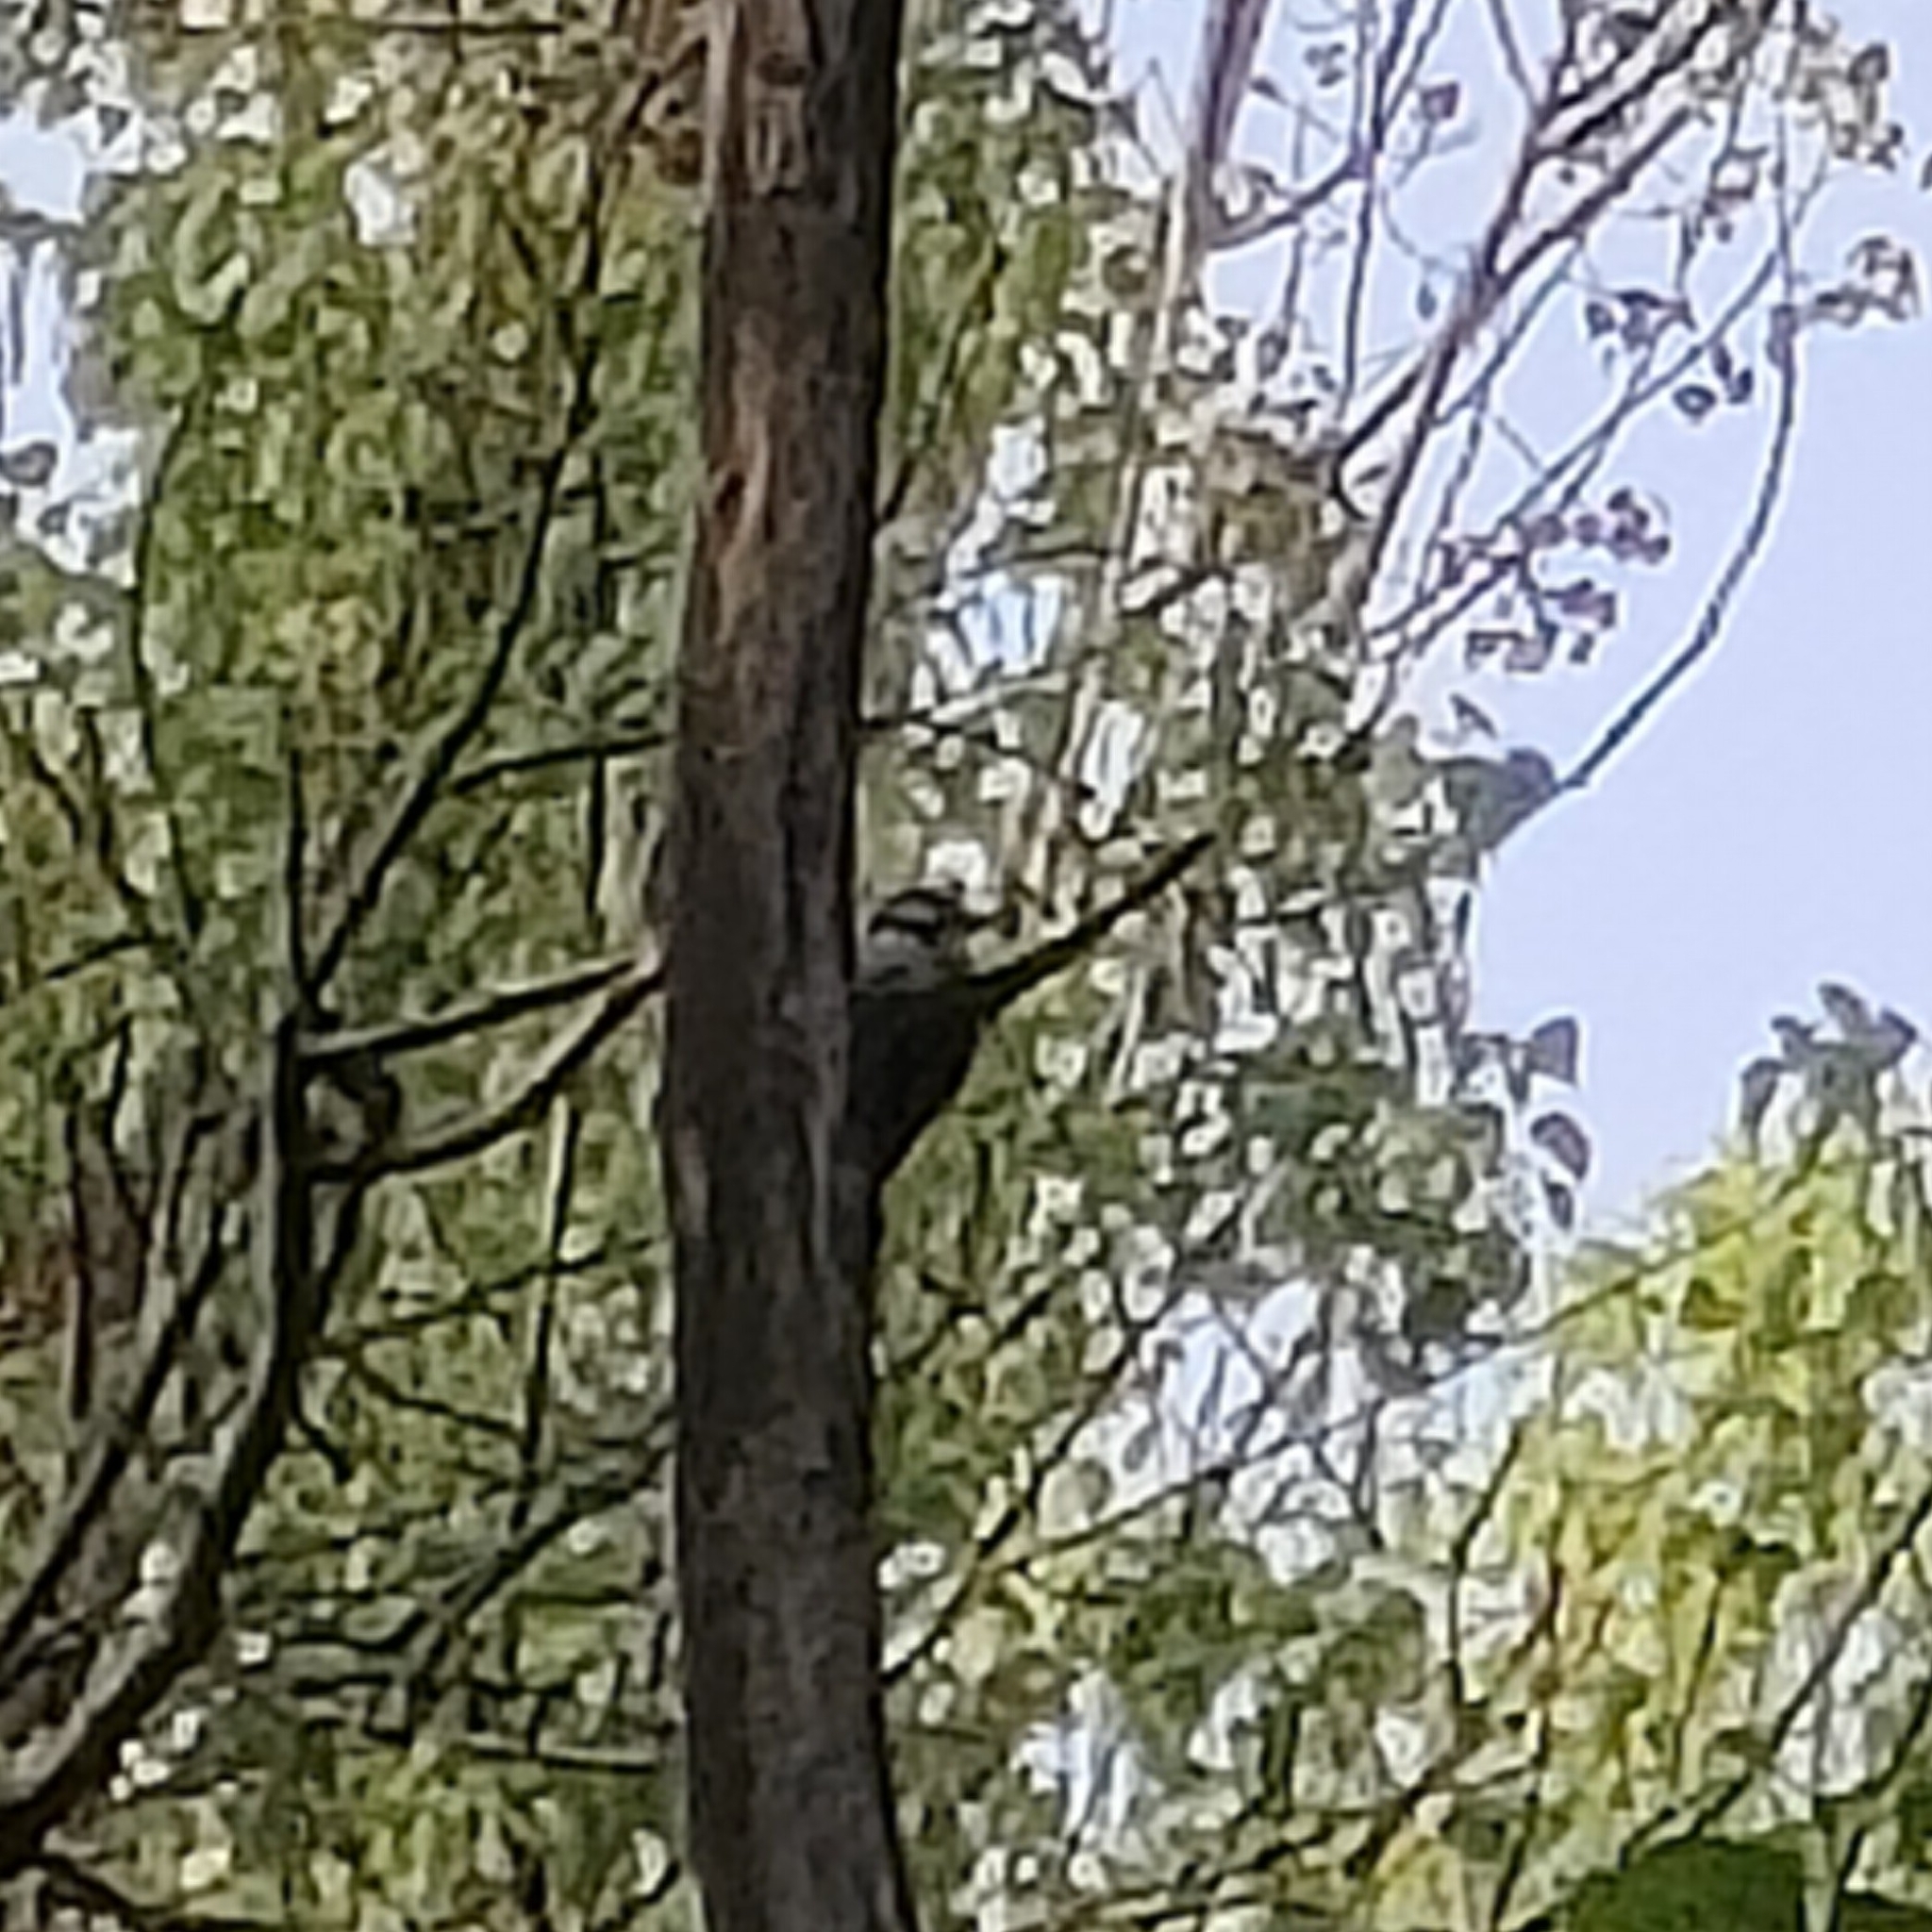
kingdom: Animalia
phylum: Chordata
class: Aves
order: Piciformes
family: Picidae
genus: Dendrocopos
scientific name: Dendrocopos major
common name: Great spotted woodpecker
